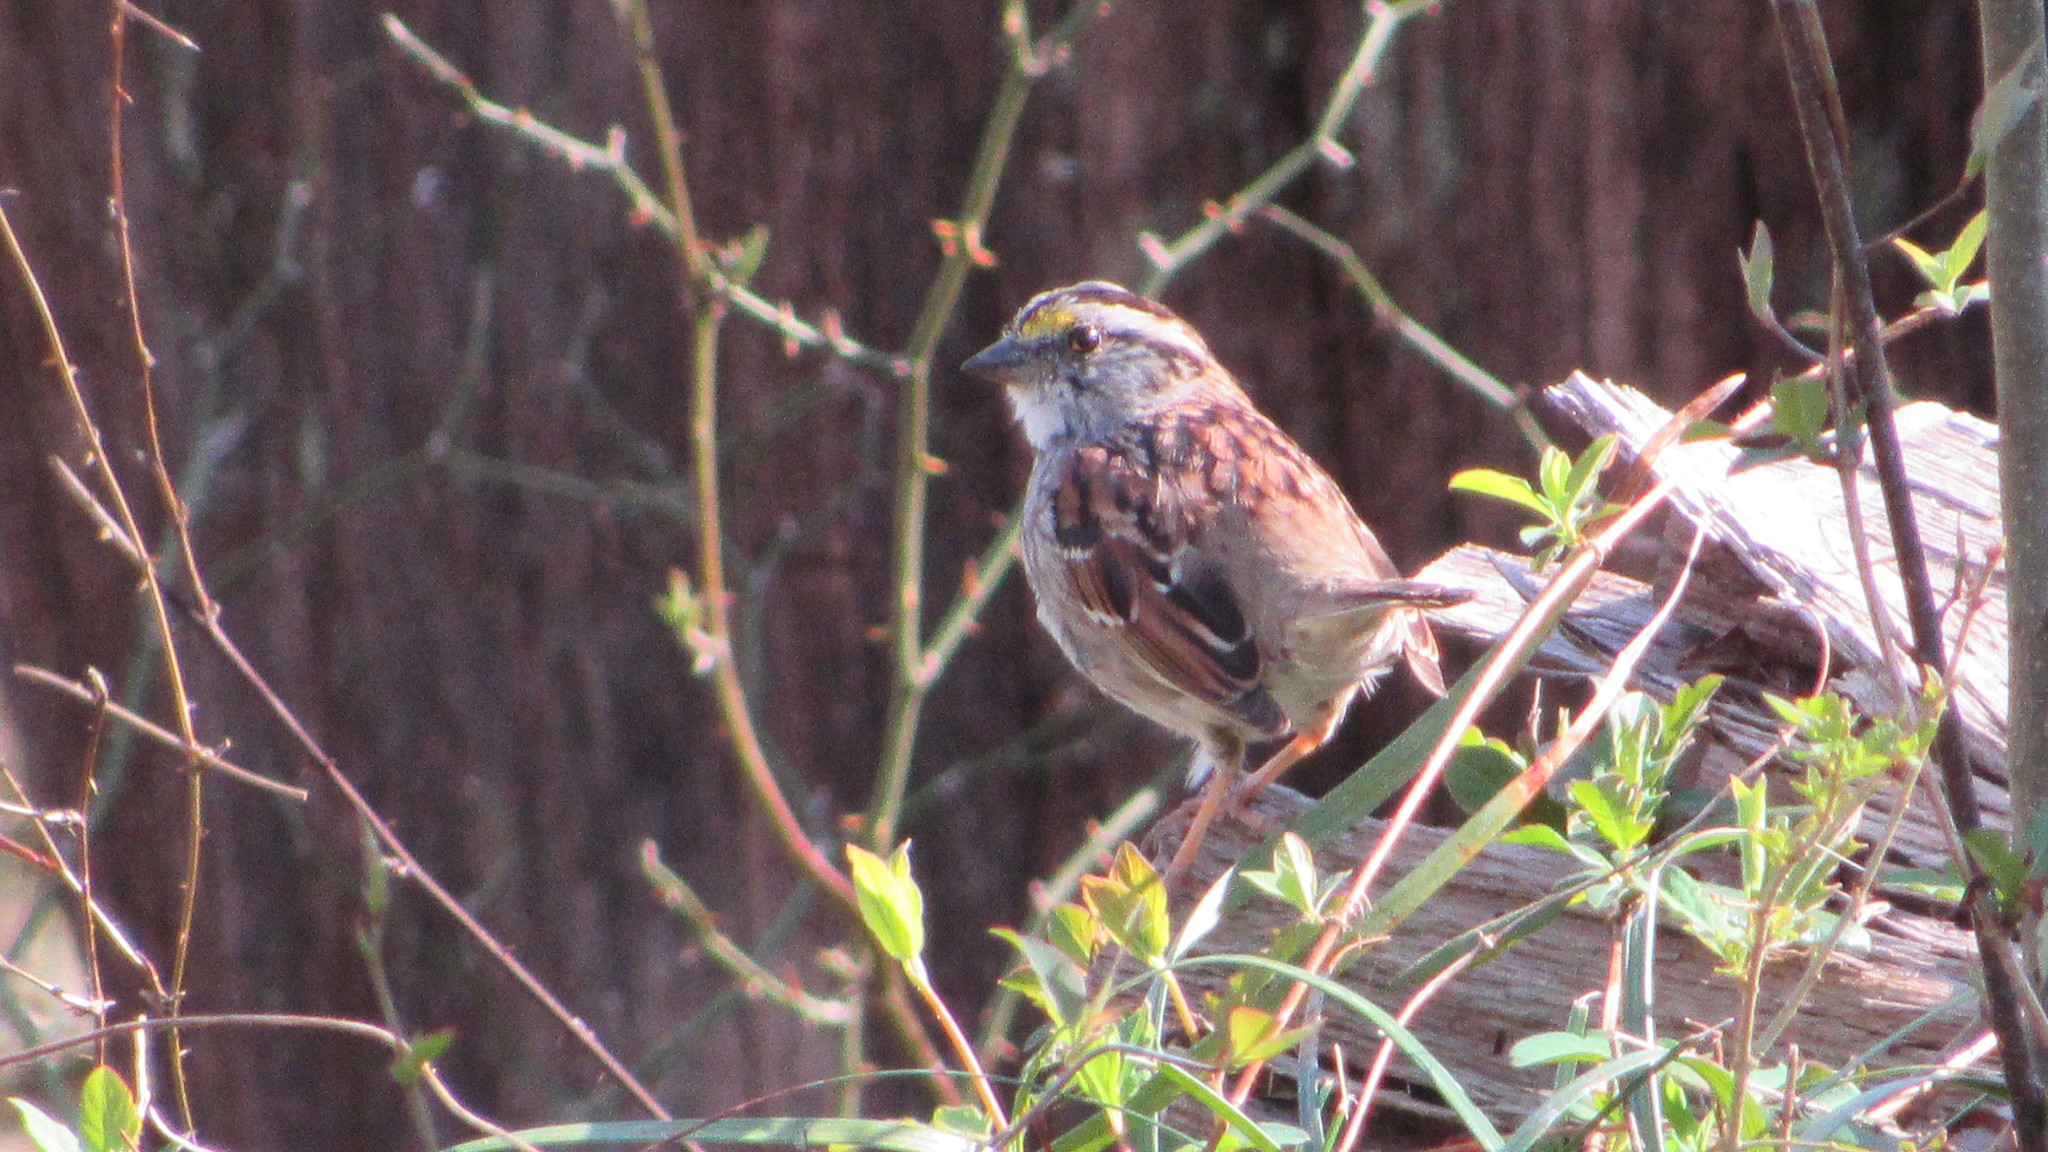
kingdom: Animalia
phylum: Chordata
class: Aves
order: Passeriformes
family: Passerellidae
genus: Zonotrichia
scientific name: Zonotrichia albicollis
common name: White-throated sparrow
